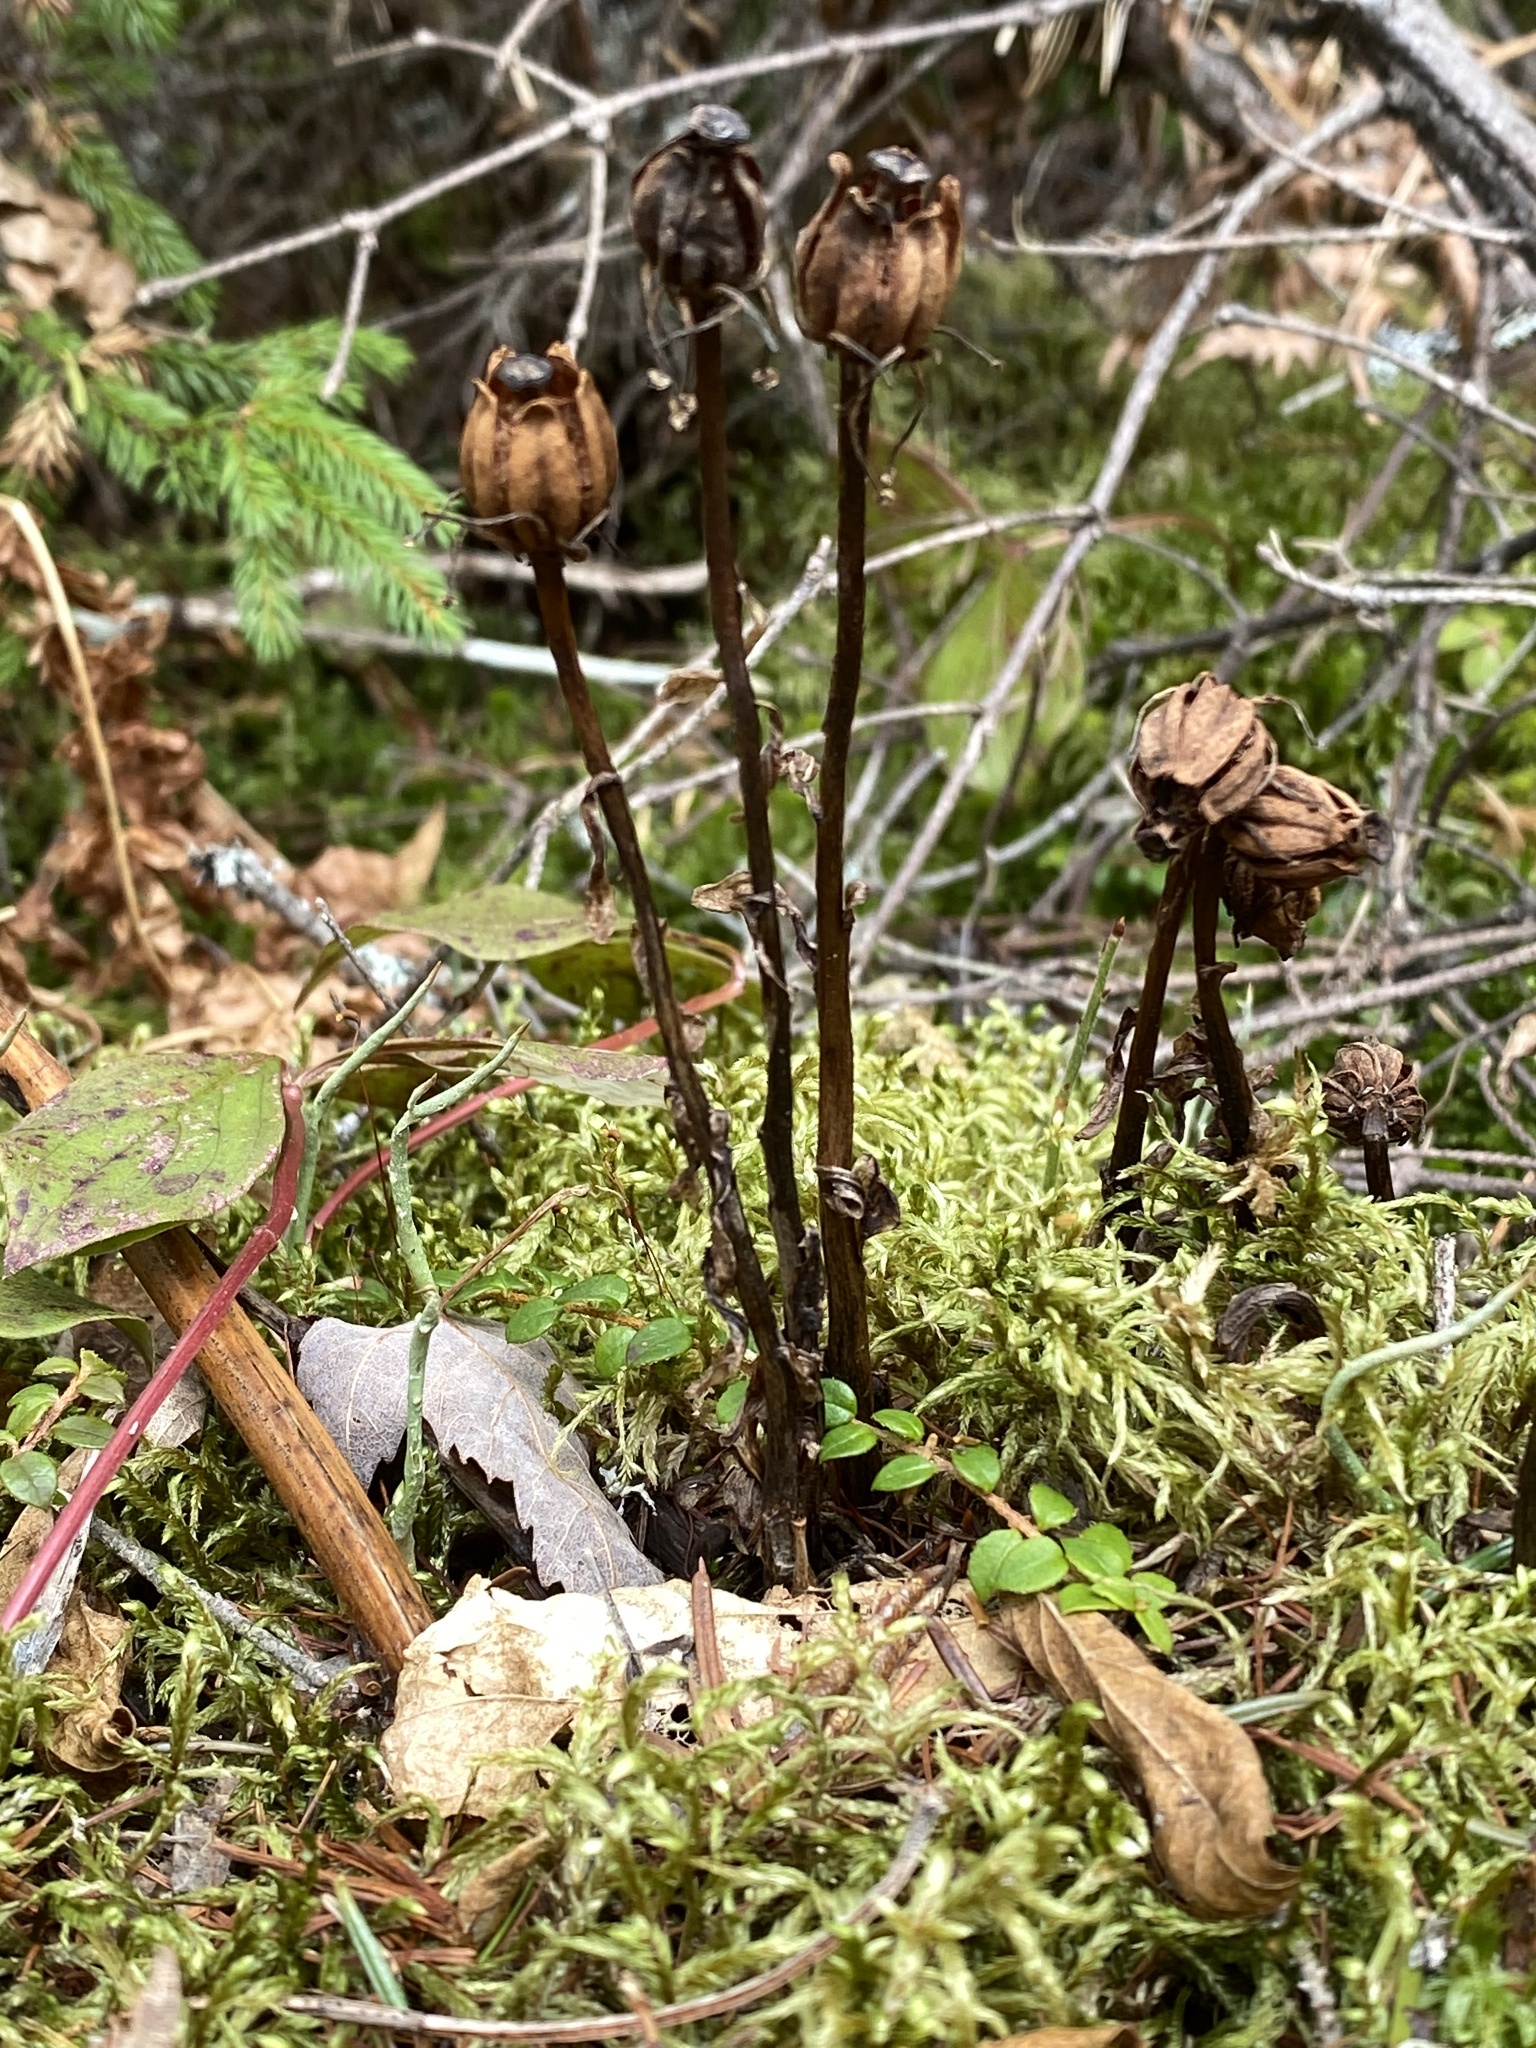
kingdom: Plantae
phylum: Tracheophyta
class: Magnoliopsida
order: Ericales
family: Ericaceae
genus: Monotropa
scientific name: Monotropa uniflora
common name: Convulsion root
